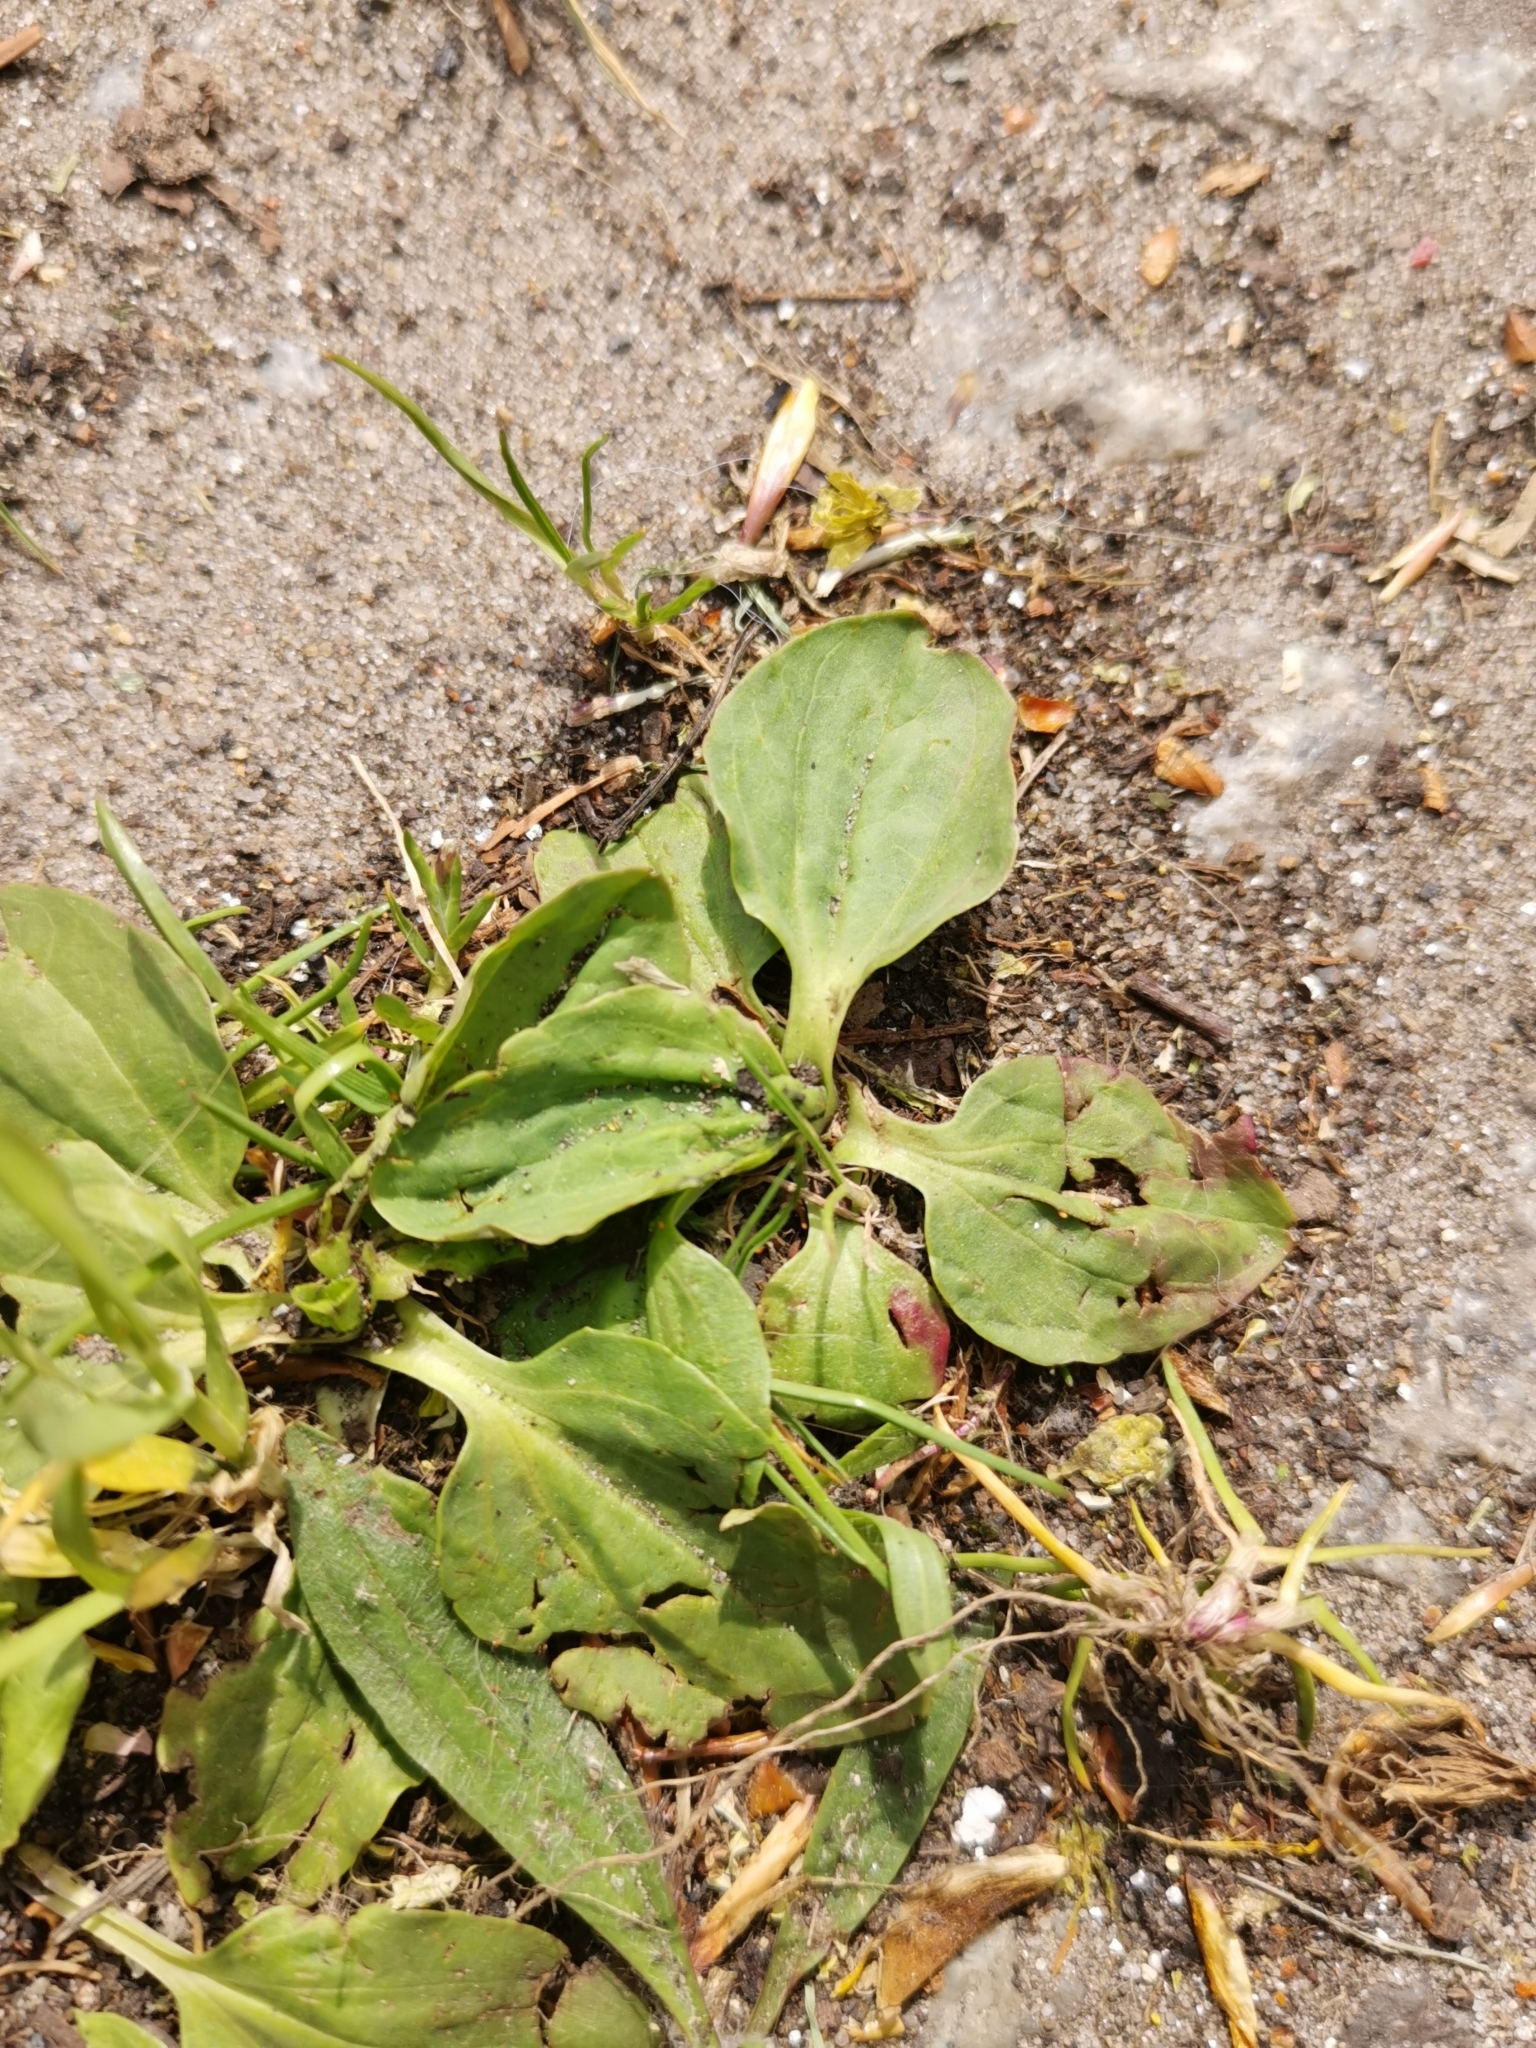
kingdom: Plantae
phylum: Tracheophyta
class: Magnoliopsida
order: Lamiales
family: Plantaginaceae
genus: Plantago
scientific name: Plantago major
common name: Common plantain
